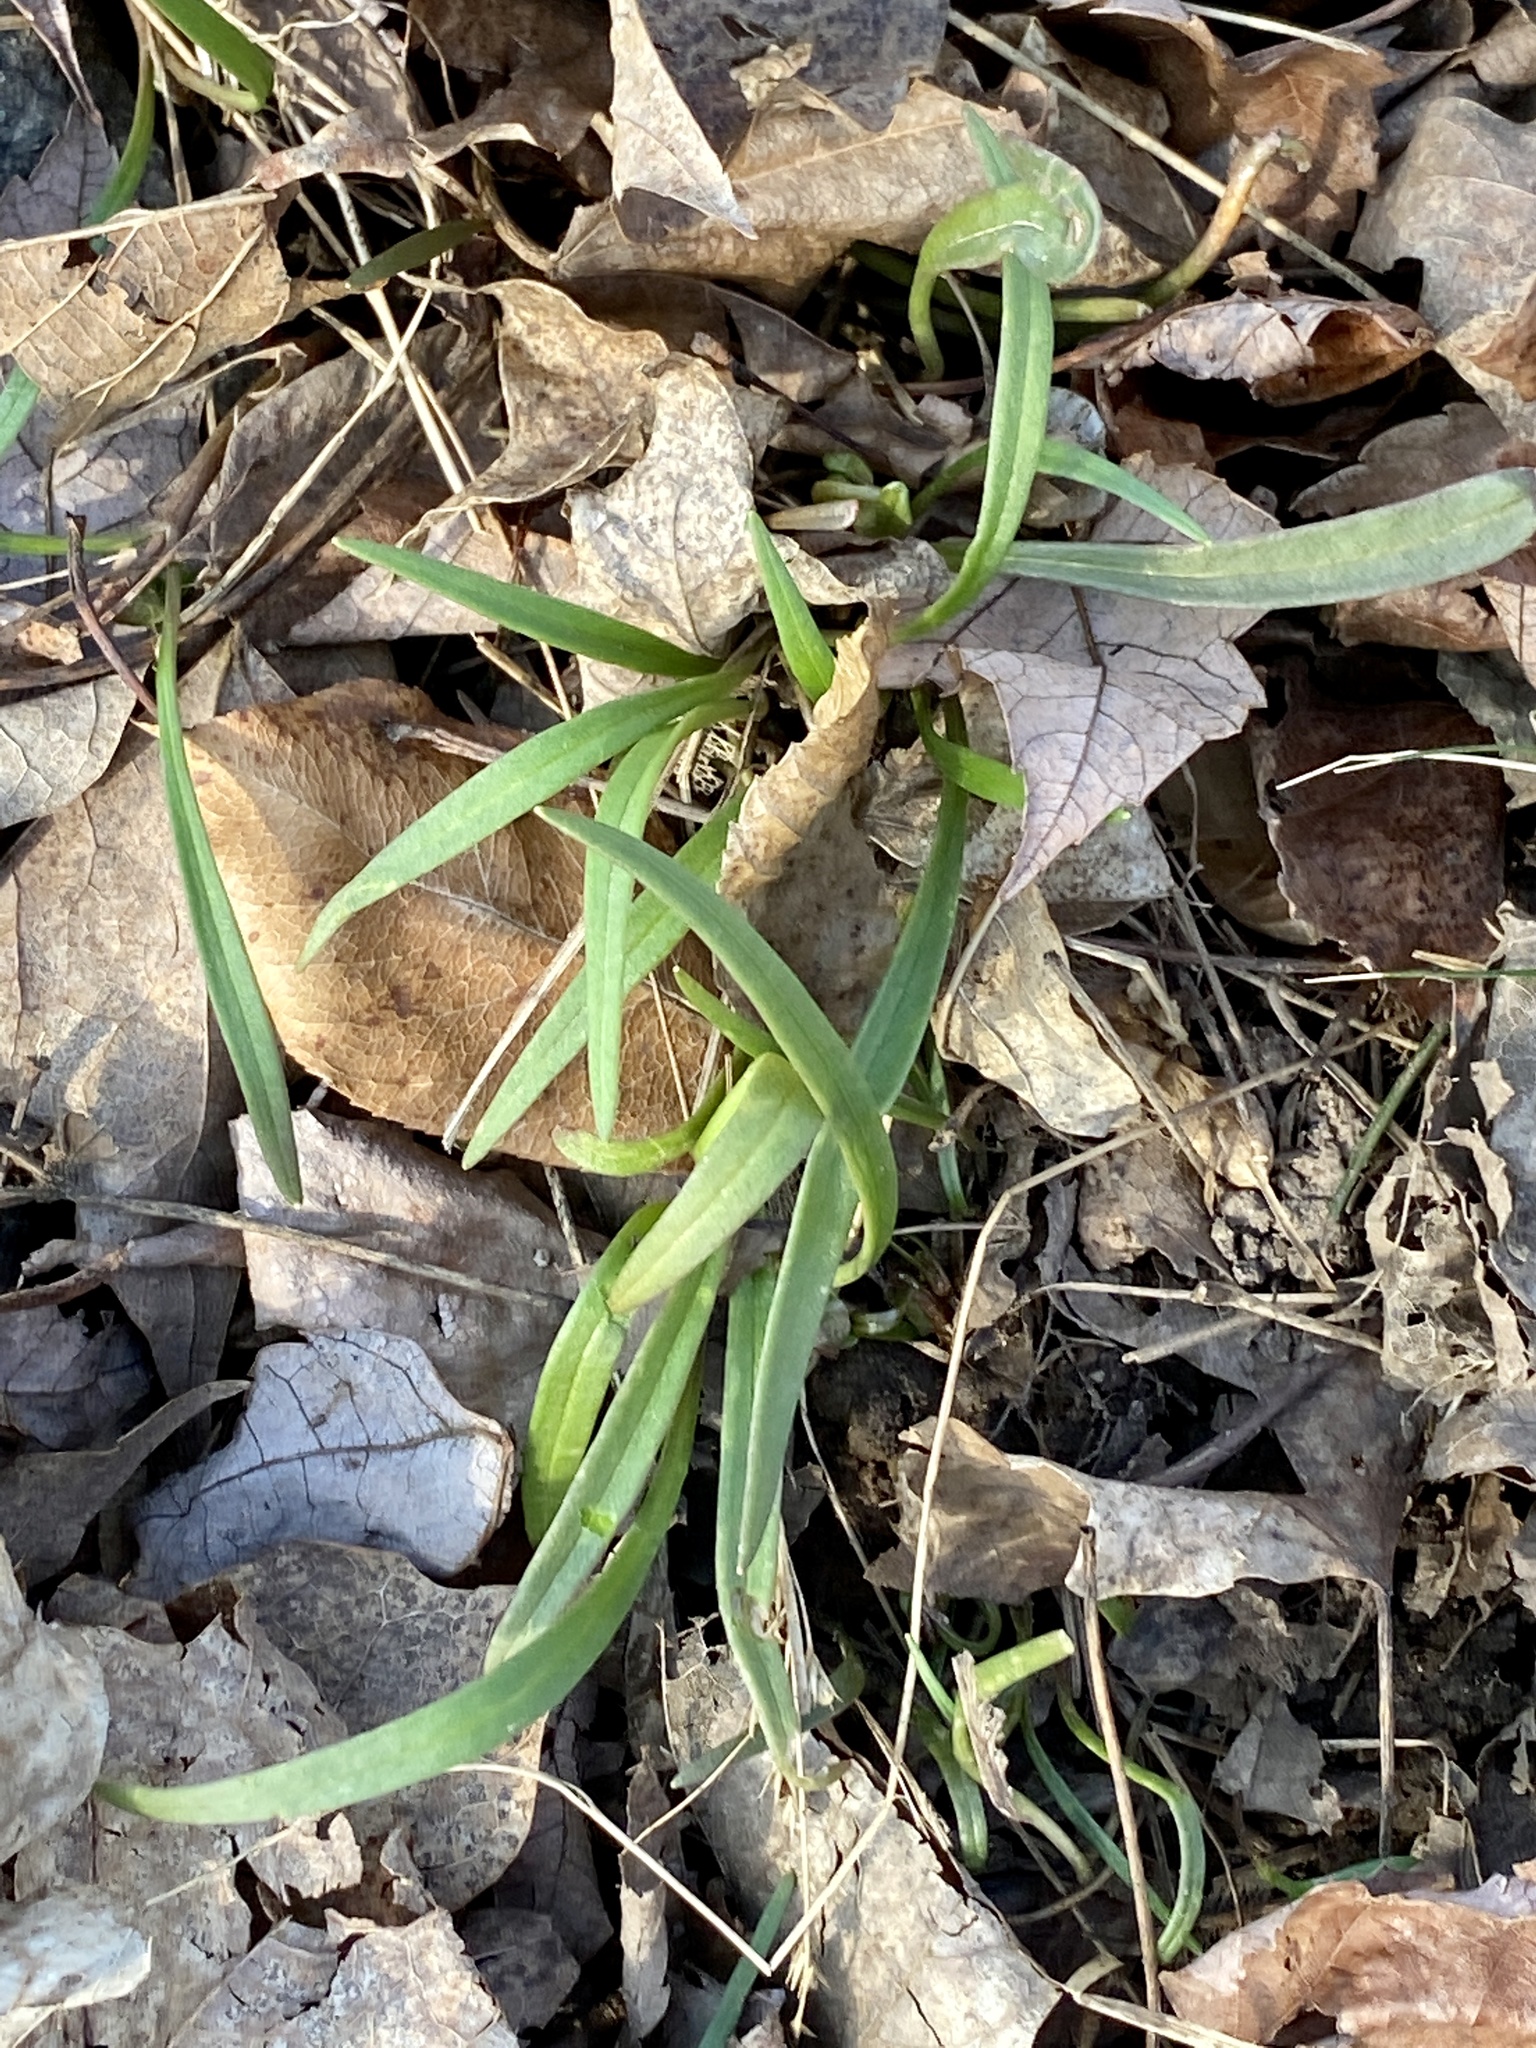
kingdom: Plantae
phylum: Tracheophyta
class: Magnoliopsida
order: Caryophyllales
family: Montiaceae
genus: Claytonia
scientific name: Claytonia virginica
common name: Virginia springbeauty
